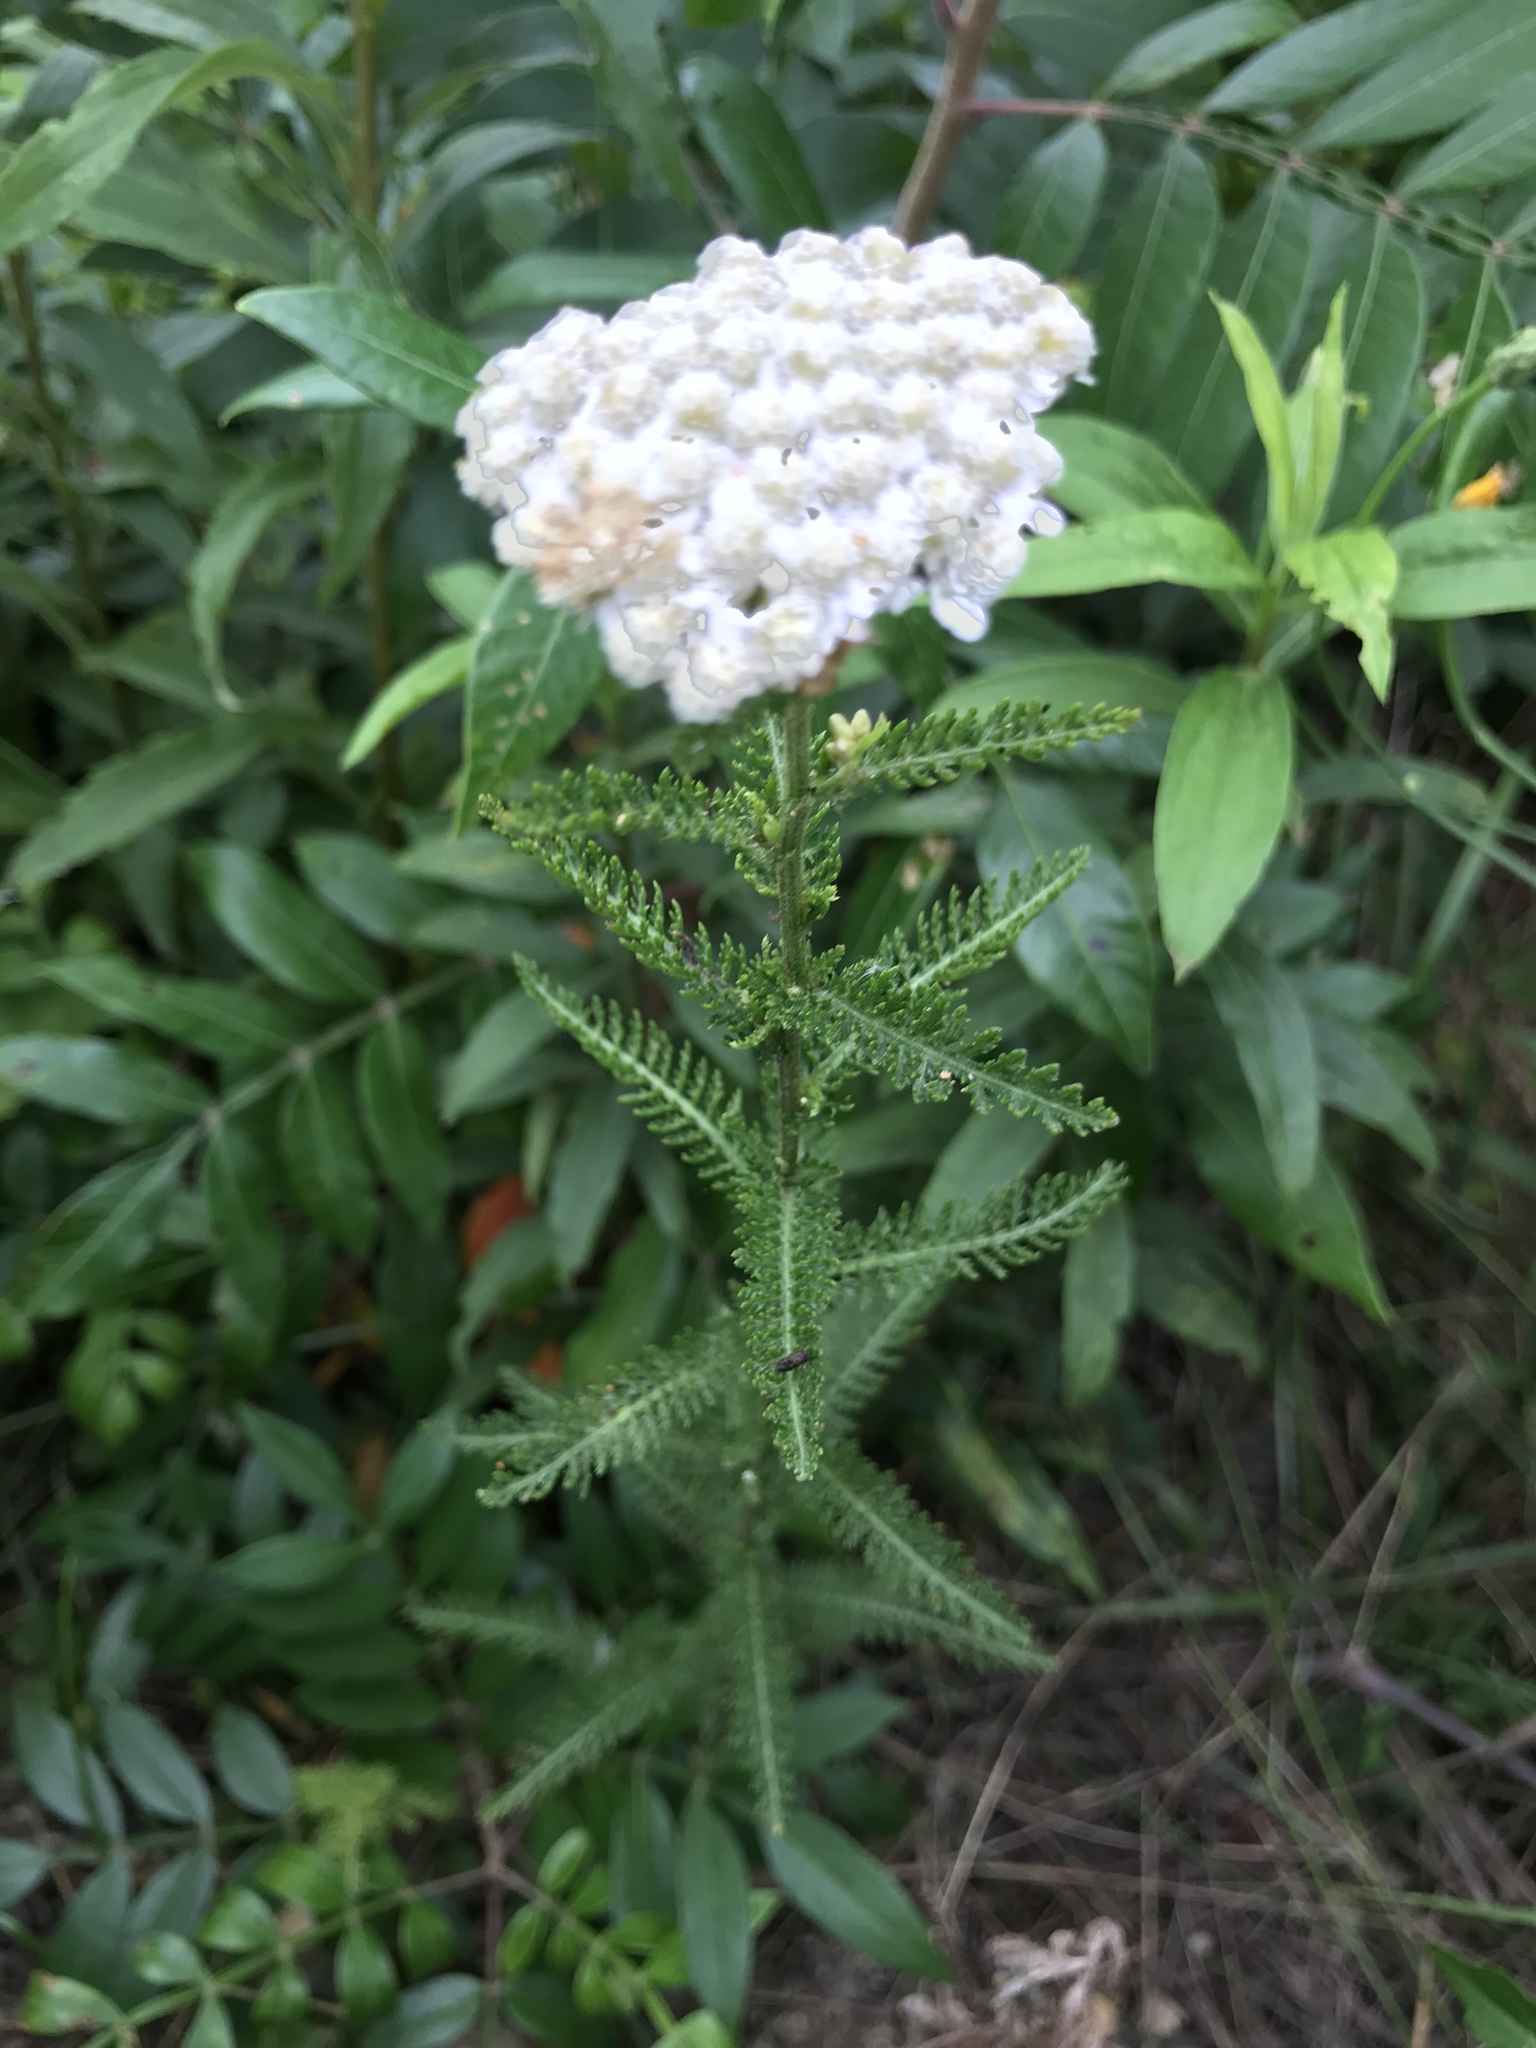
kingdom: Plantae
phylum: Tracheophyta
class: Magnoliopsida
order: Asterales
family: Asteraceae
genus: Achillea
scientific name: Achillea millefolium
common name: Yarrow
